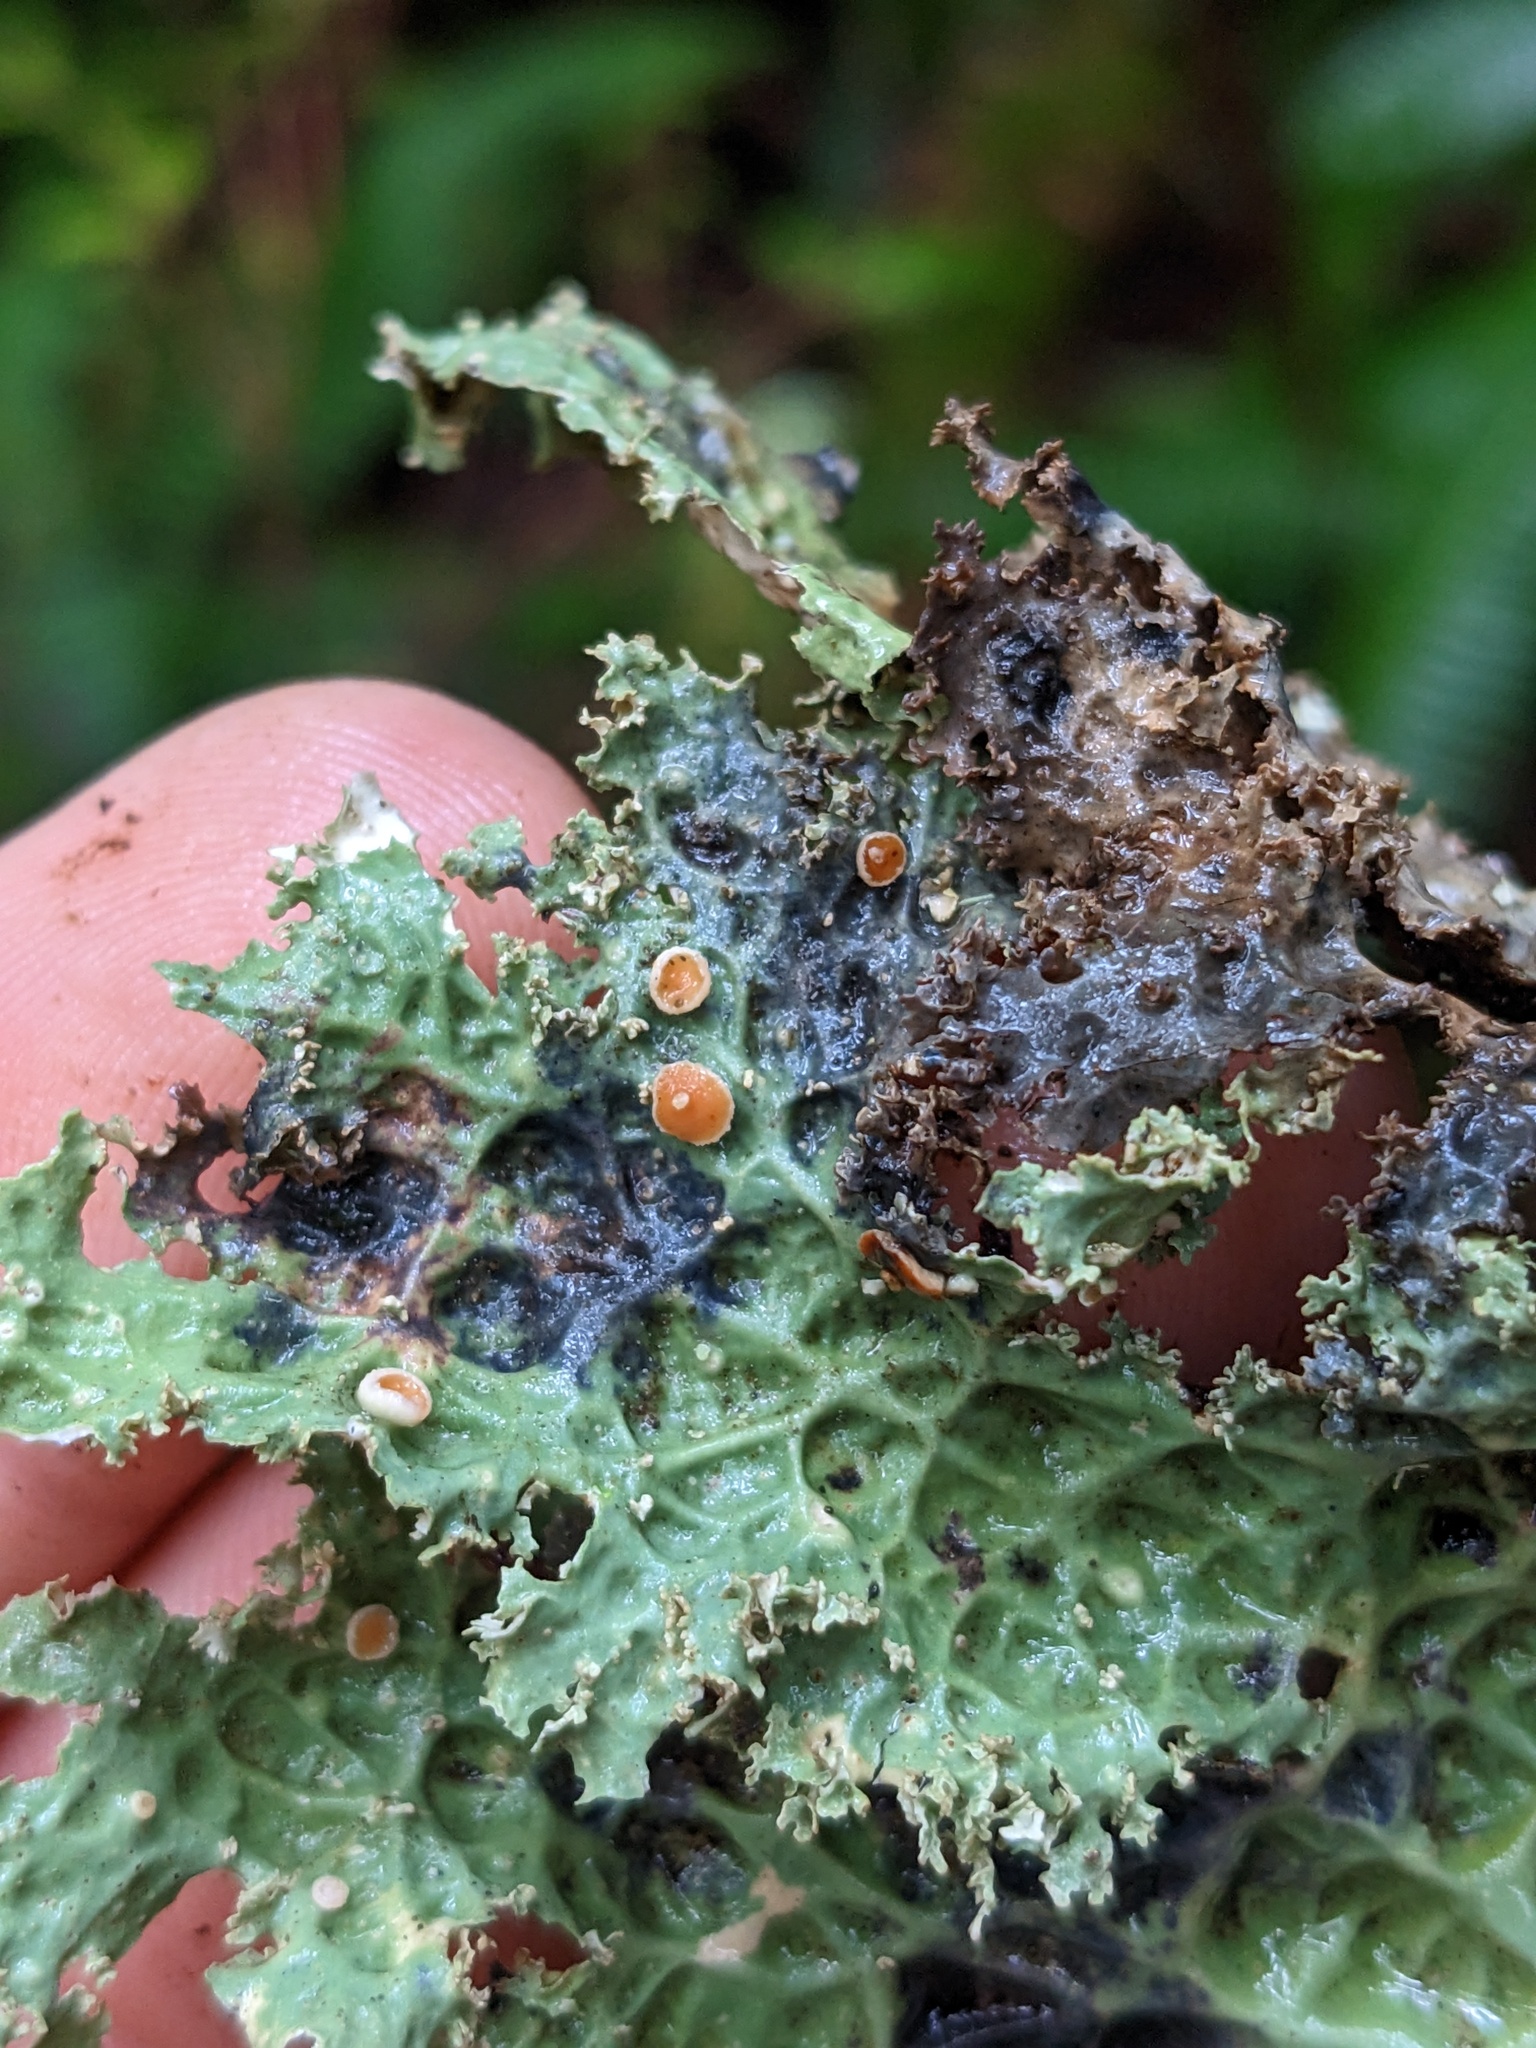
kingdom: Fungi
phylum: Ascomycota
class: Lecanoromycetes
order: Peltigerales
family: Lobariaceae
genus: Lobaria
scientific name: Lobaria oregana
